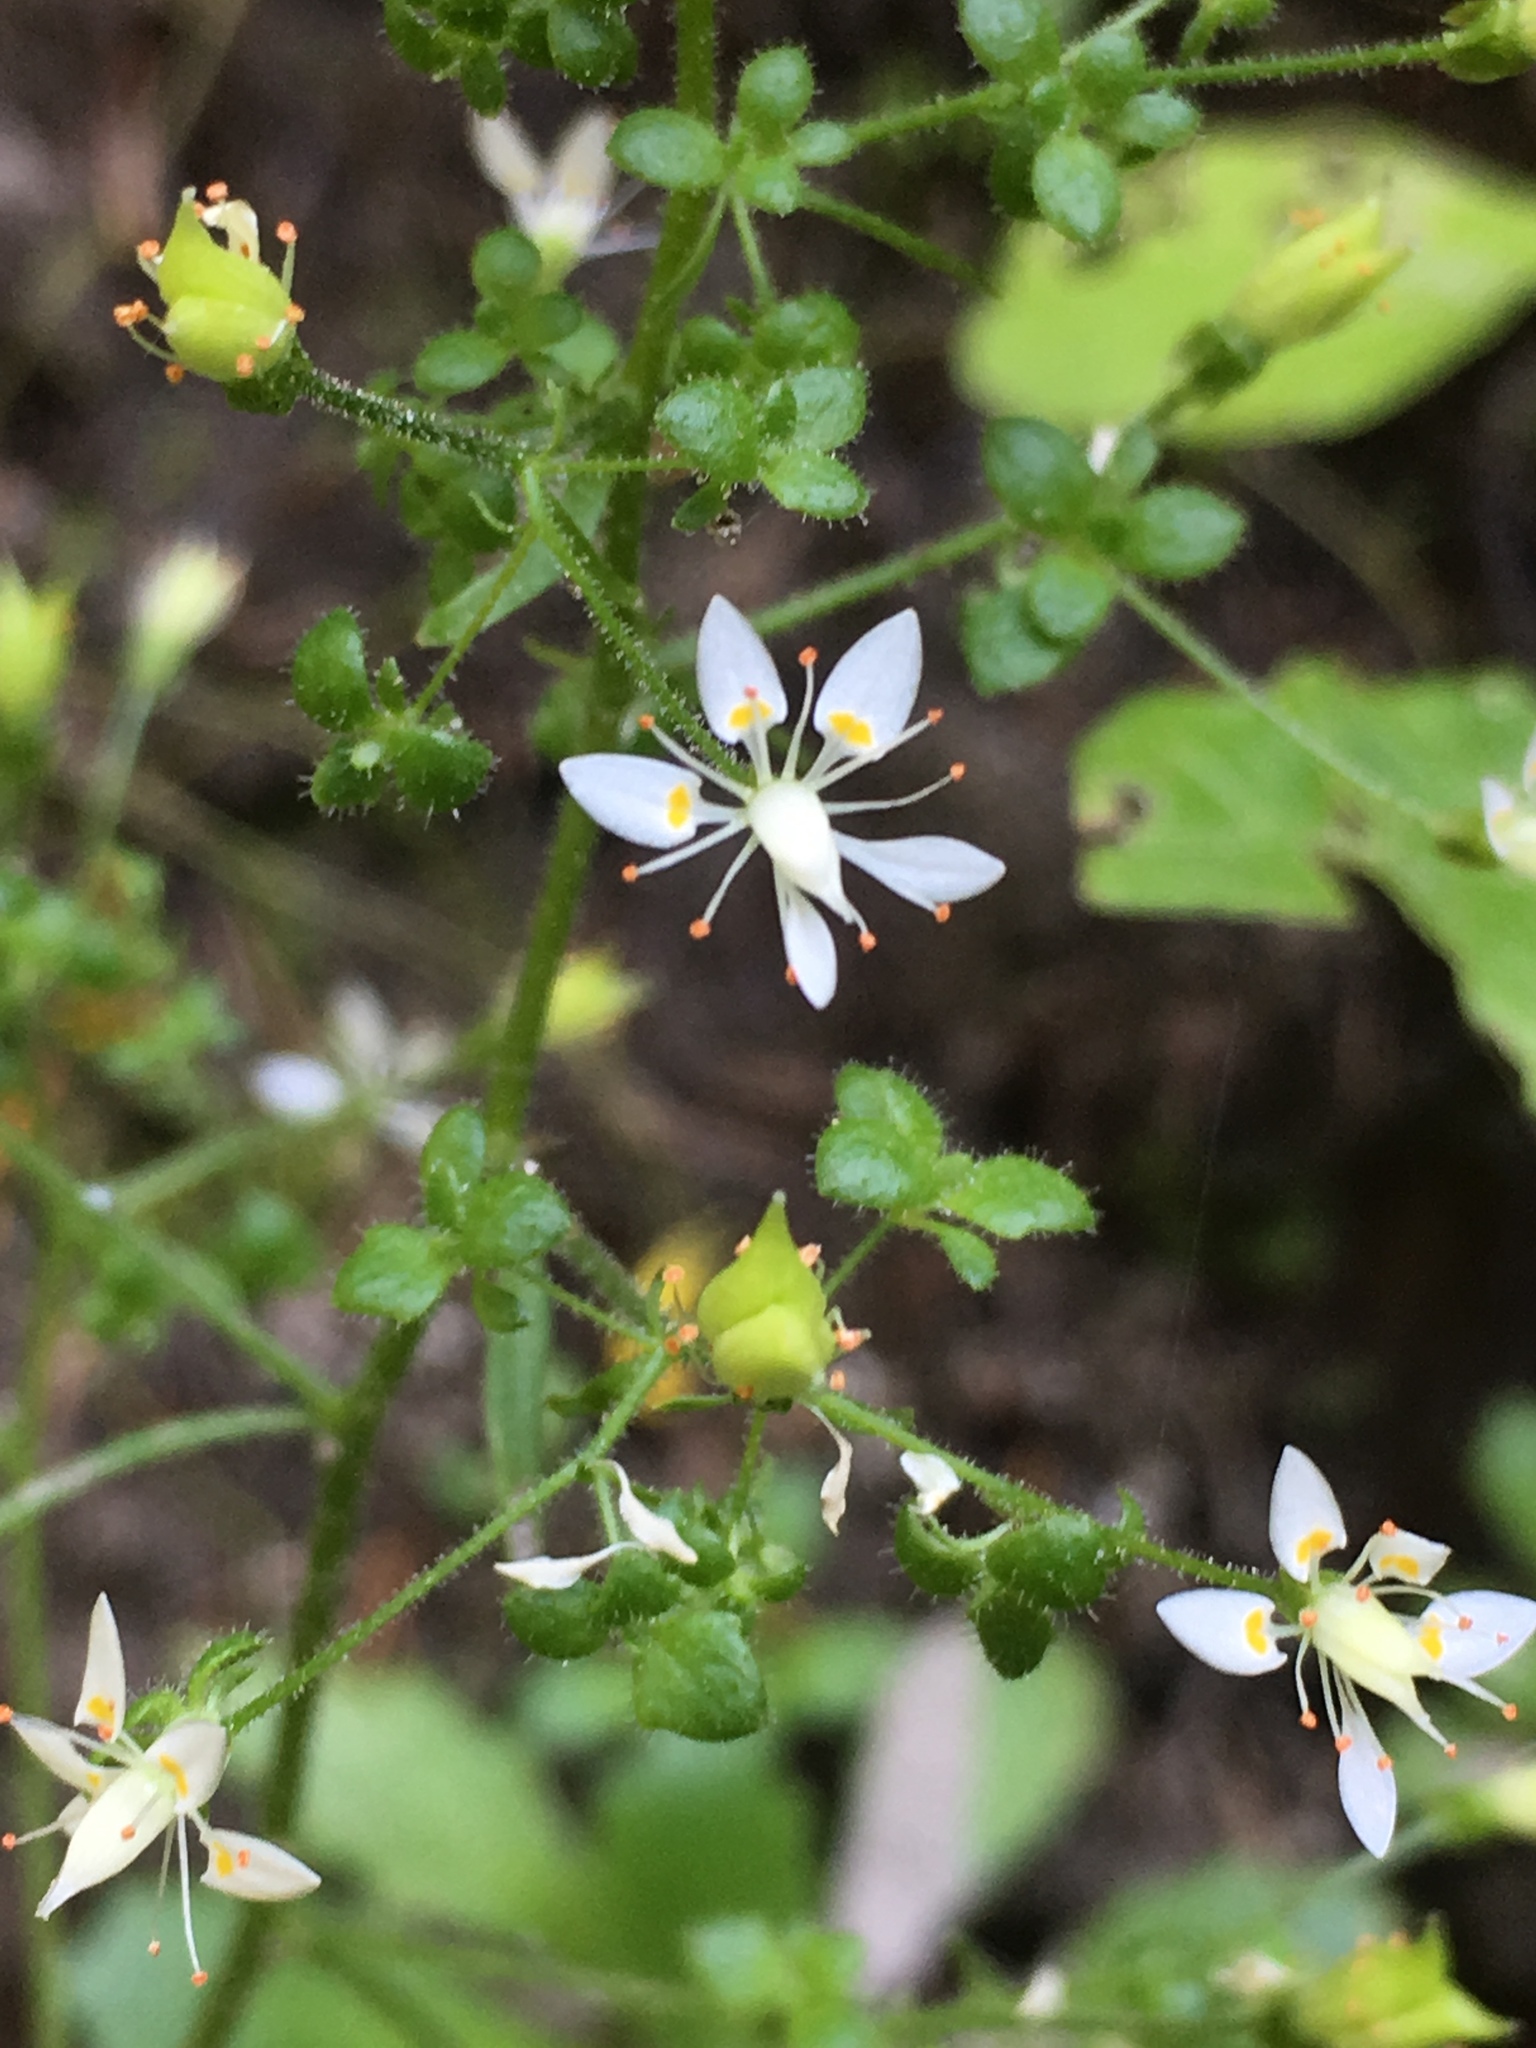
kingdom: Plantae
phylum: Tracheophyta
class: Magnoliopsida
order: Saxifragales
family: Saxifragaceae
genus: Micranthes
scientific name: Micranthes ferruginea
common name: Rusty saxifrage
